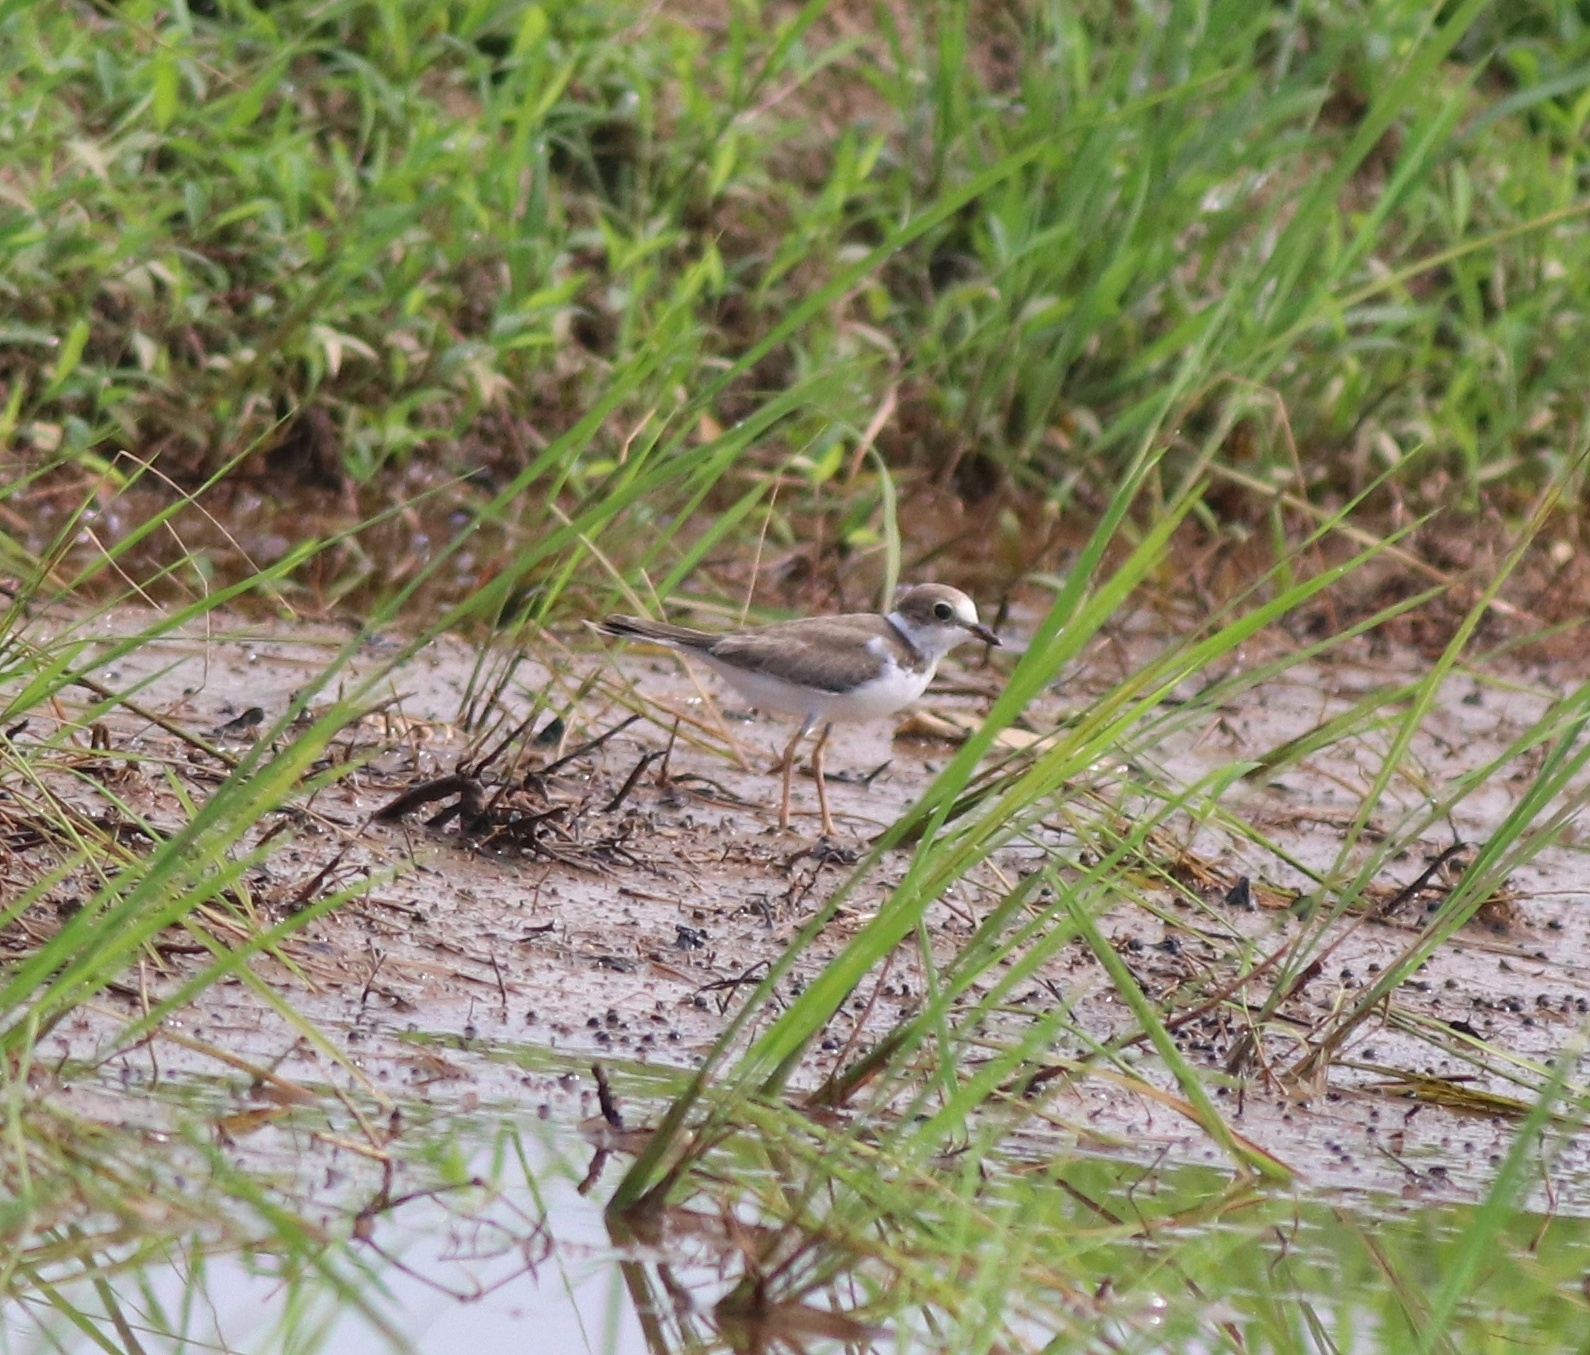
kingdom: Animalia
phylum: Chordata
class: Aves
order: Charadriiformes
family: Charadriidae
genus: Charadrius
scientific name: Charadrius dubius
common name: Little ringed plover
